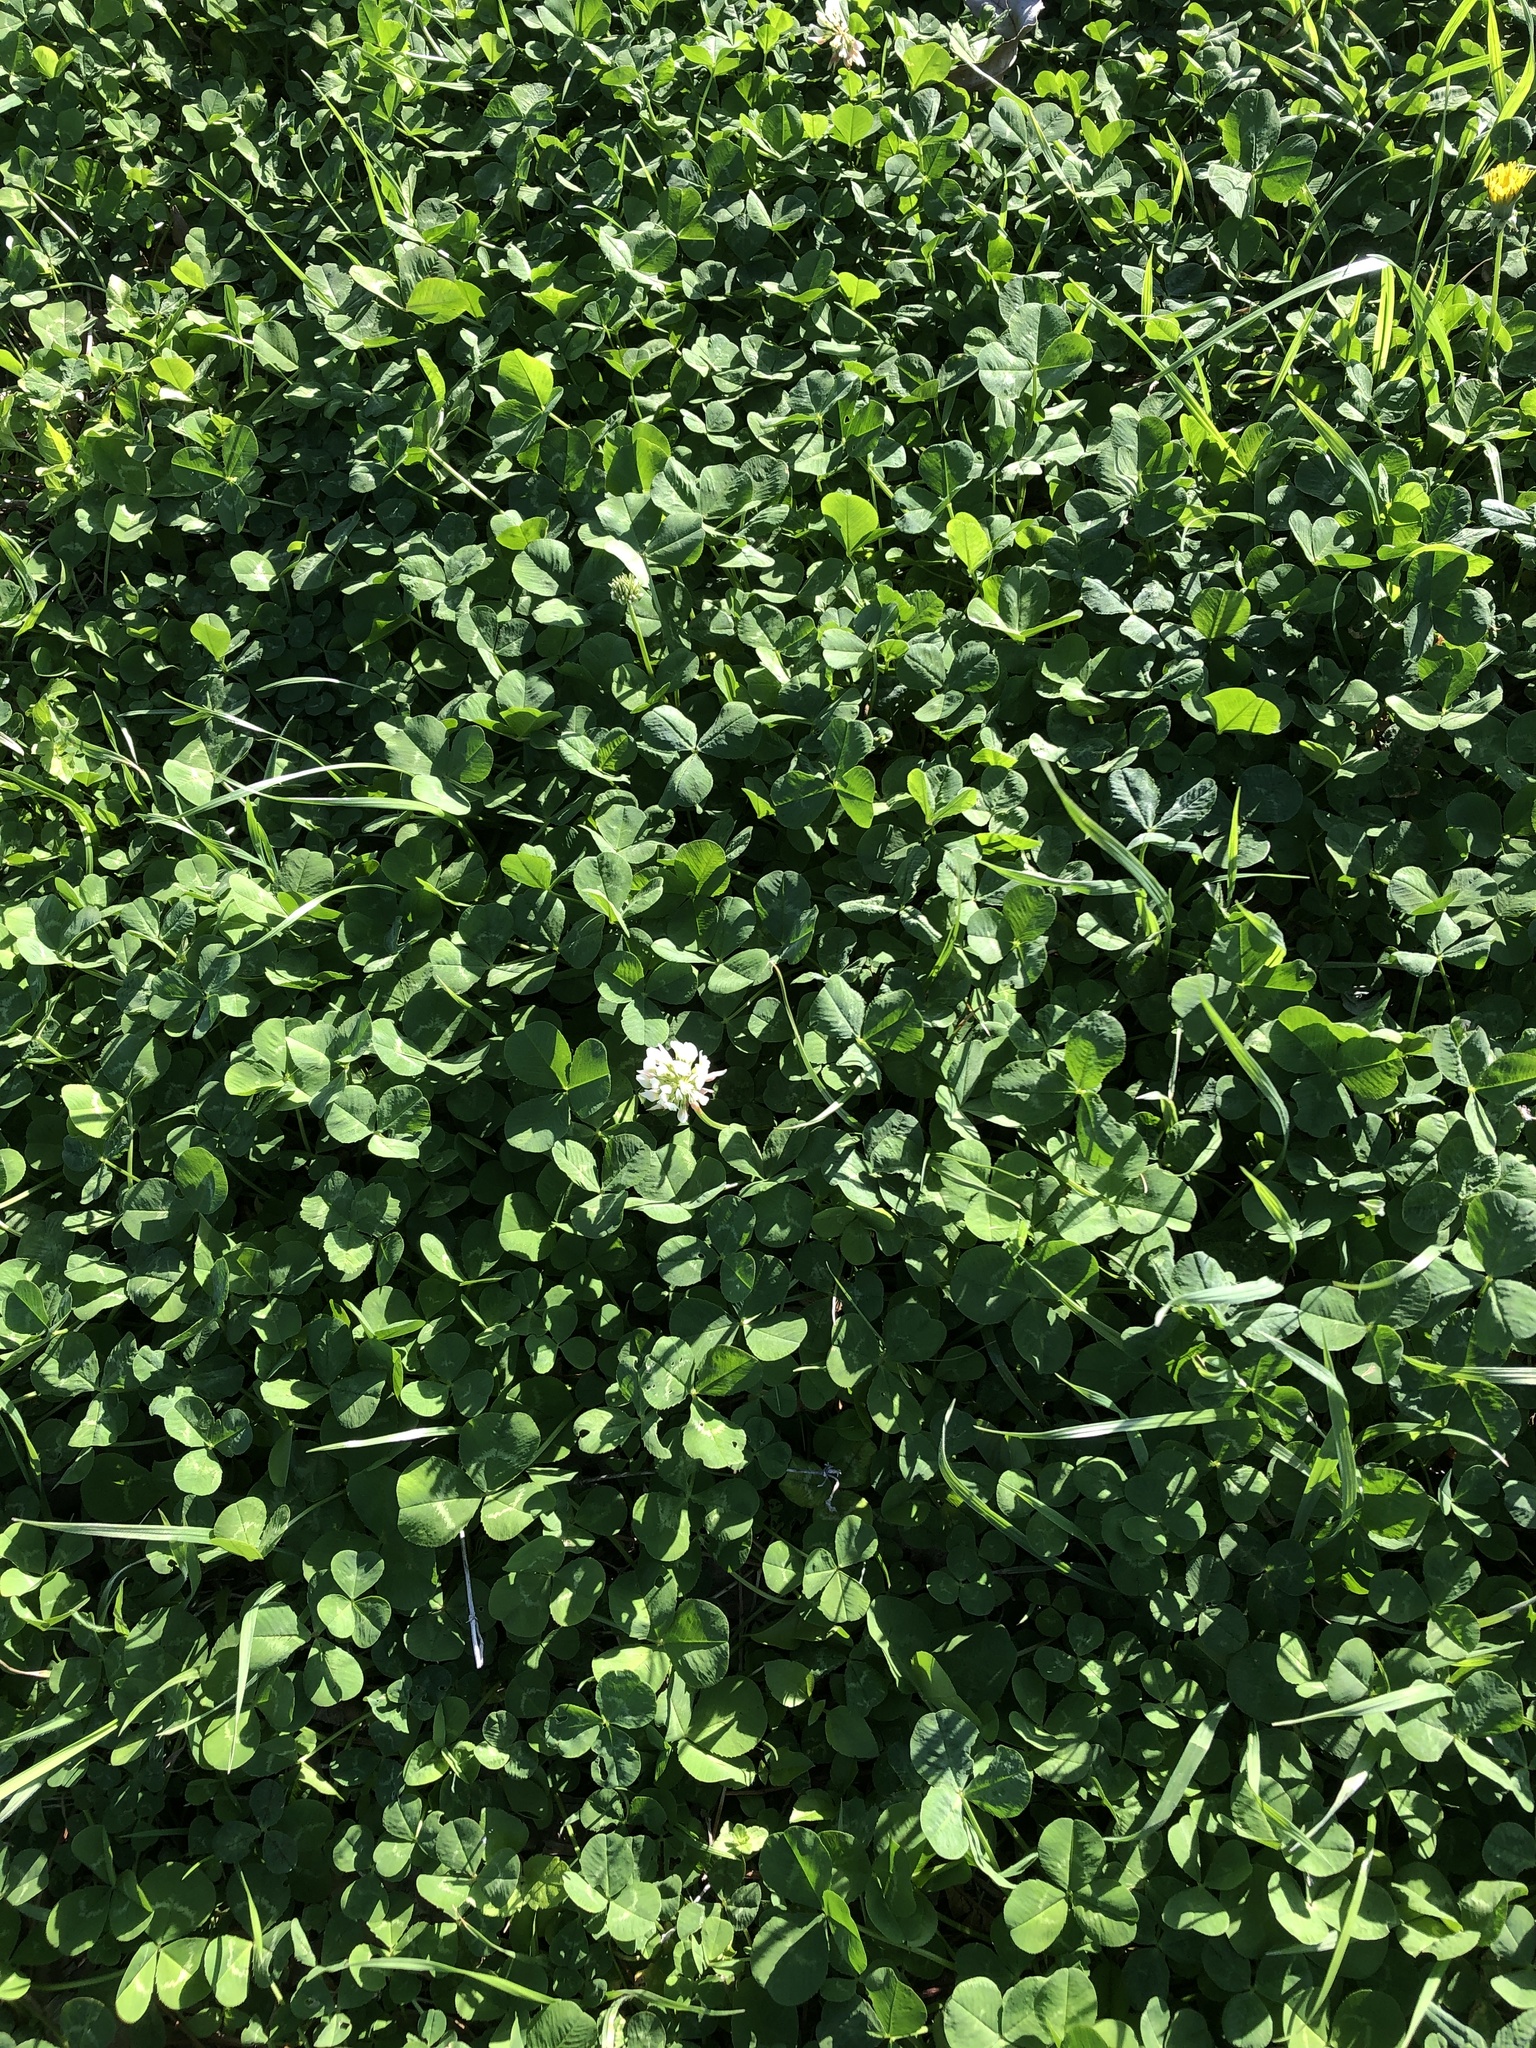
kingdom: Plantae
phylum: Tracheophyta
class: Magnoliopsida
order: Fabales
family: Fabaceae
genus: Trifolium
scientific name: Trifolium repens
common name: White clover
